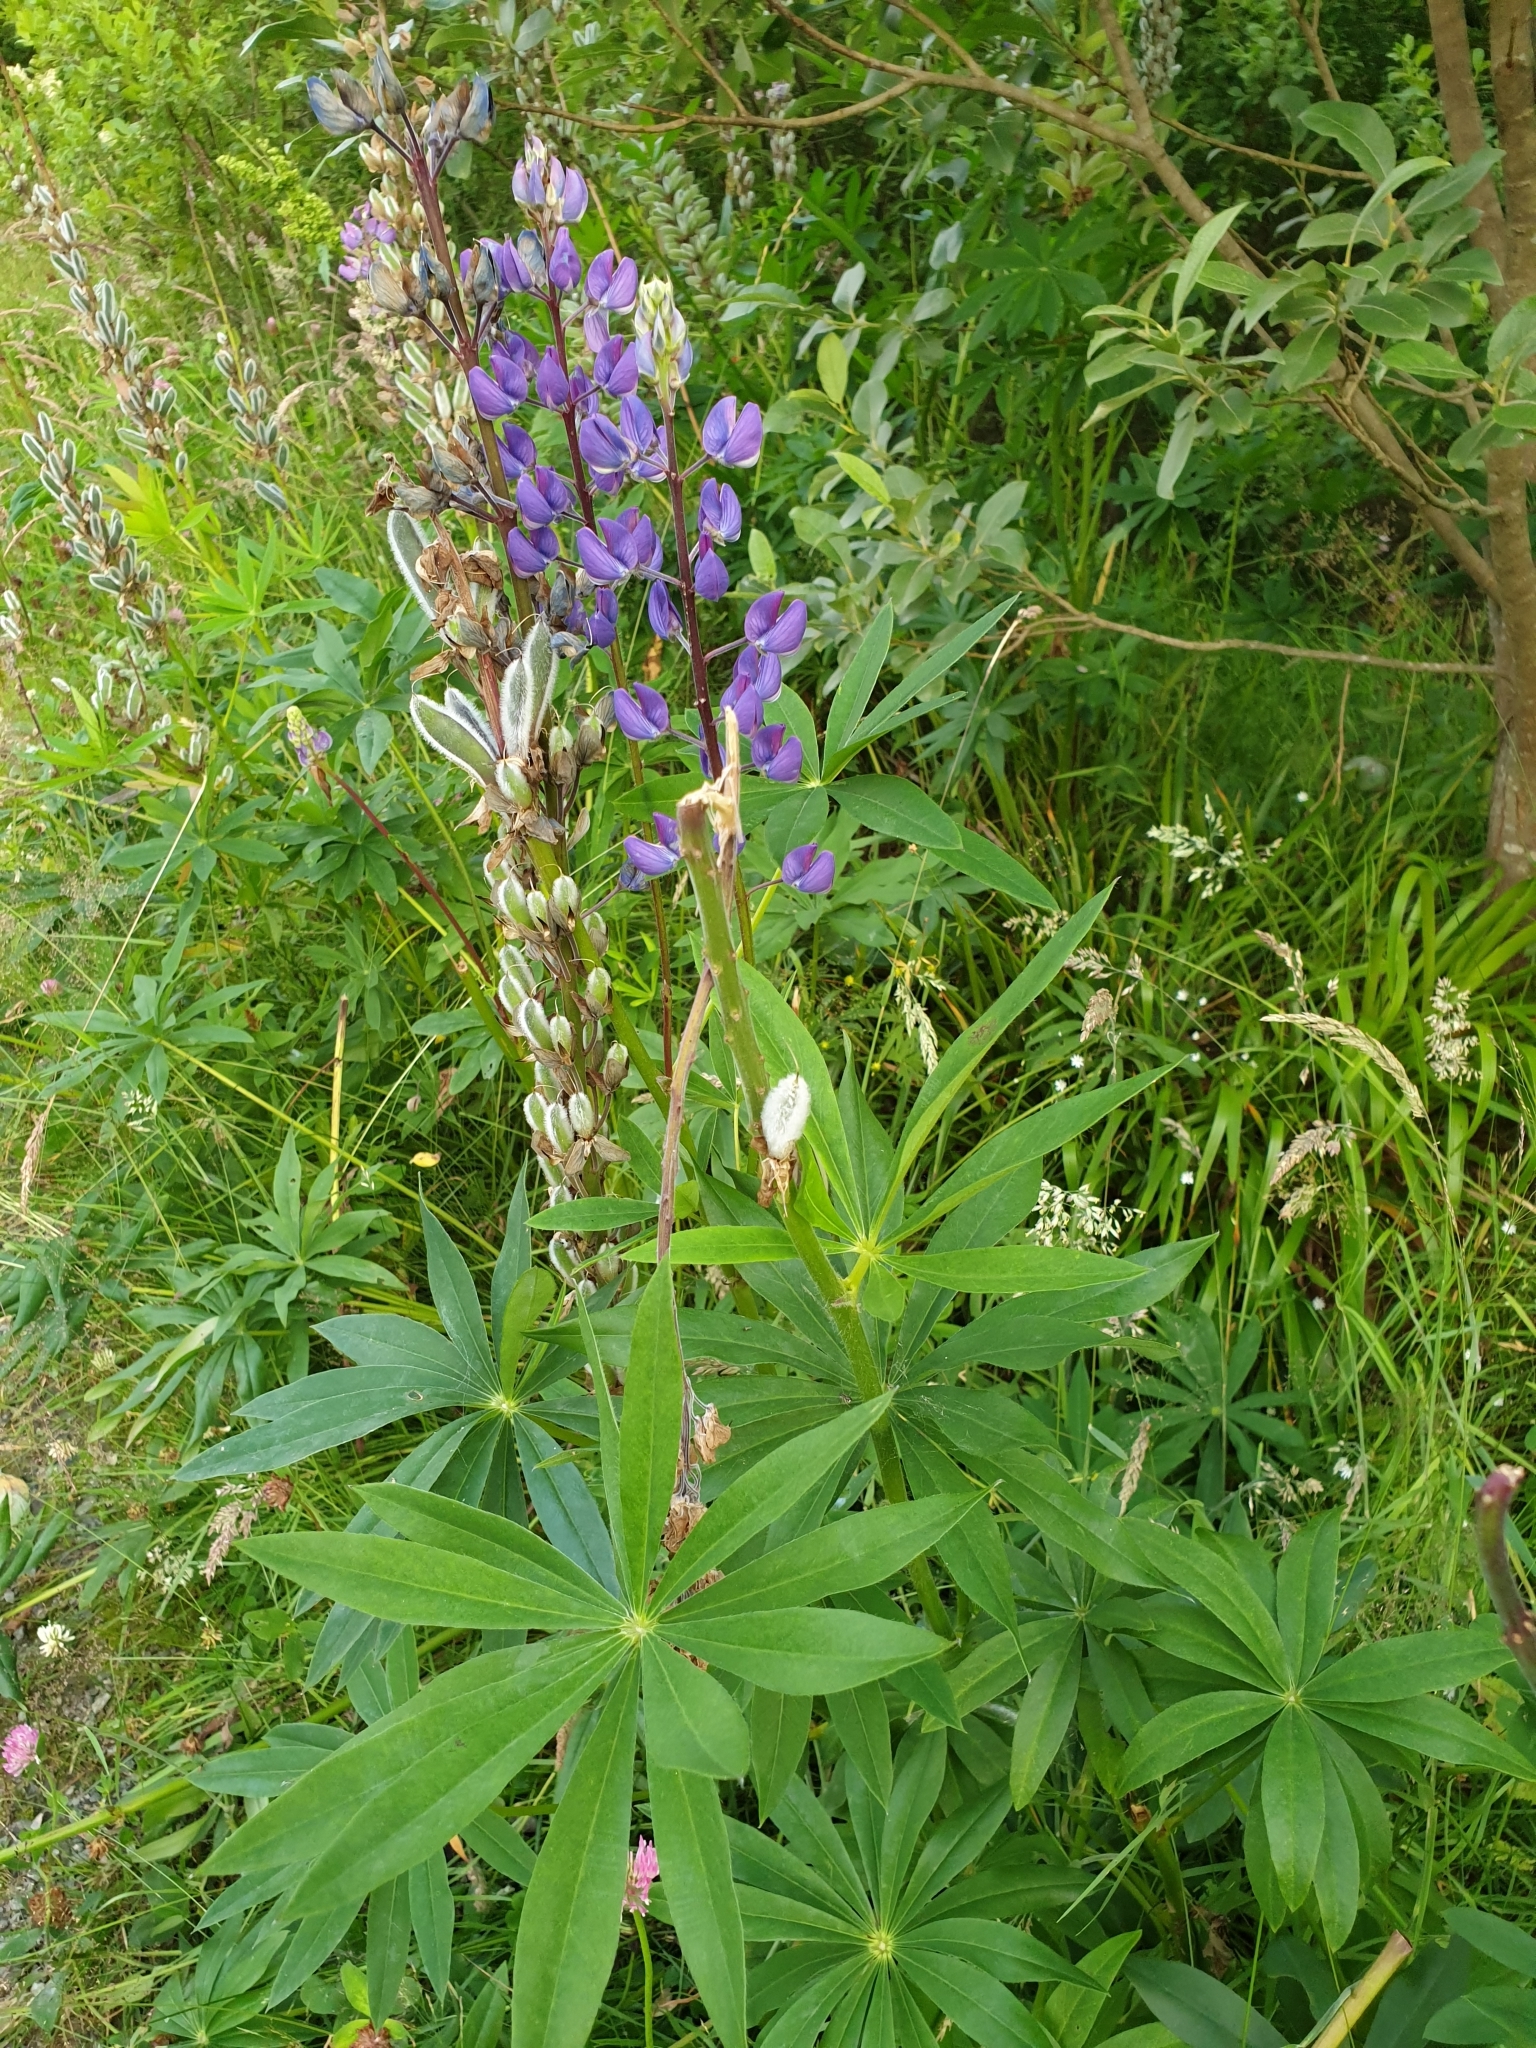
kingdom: Plantae
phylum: Tracheophyta
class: Magnoliopsida
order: Fabales
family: Fabaceae
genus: Lupinus
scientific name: Lupinus polyphyllus
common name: Garden lupin
